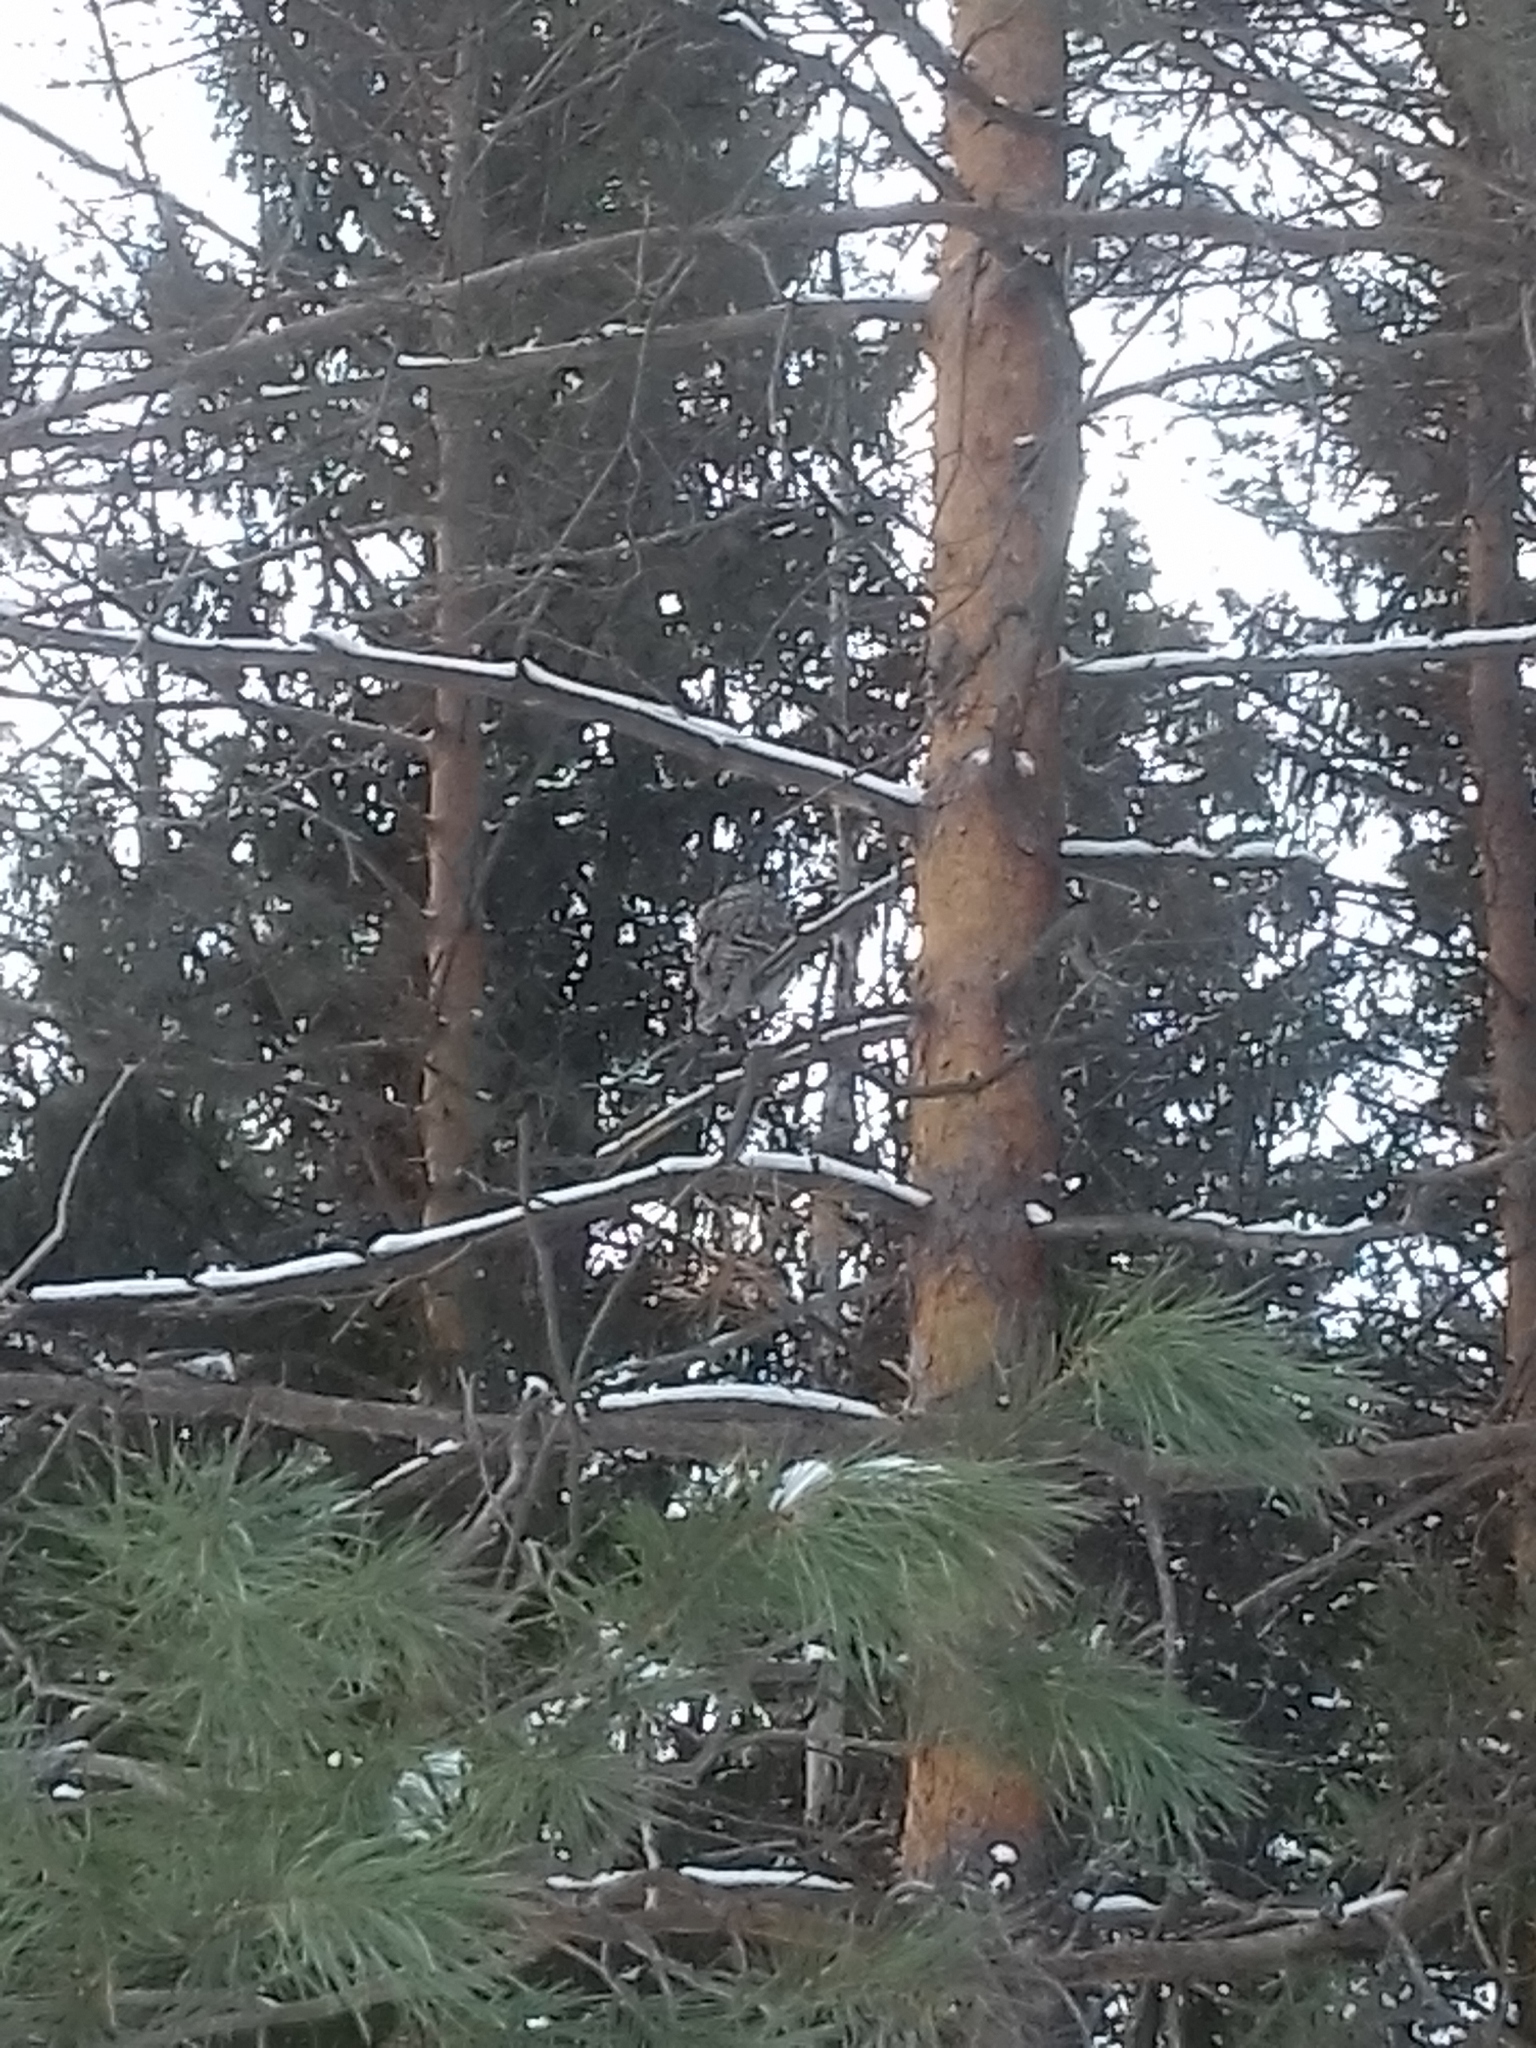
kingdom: Animalia
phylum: Chordata
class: Aves
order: Strigiformes
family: Strigidae
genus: Strix
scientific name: Strix uralensis
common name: Ural owl
